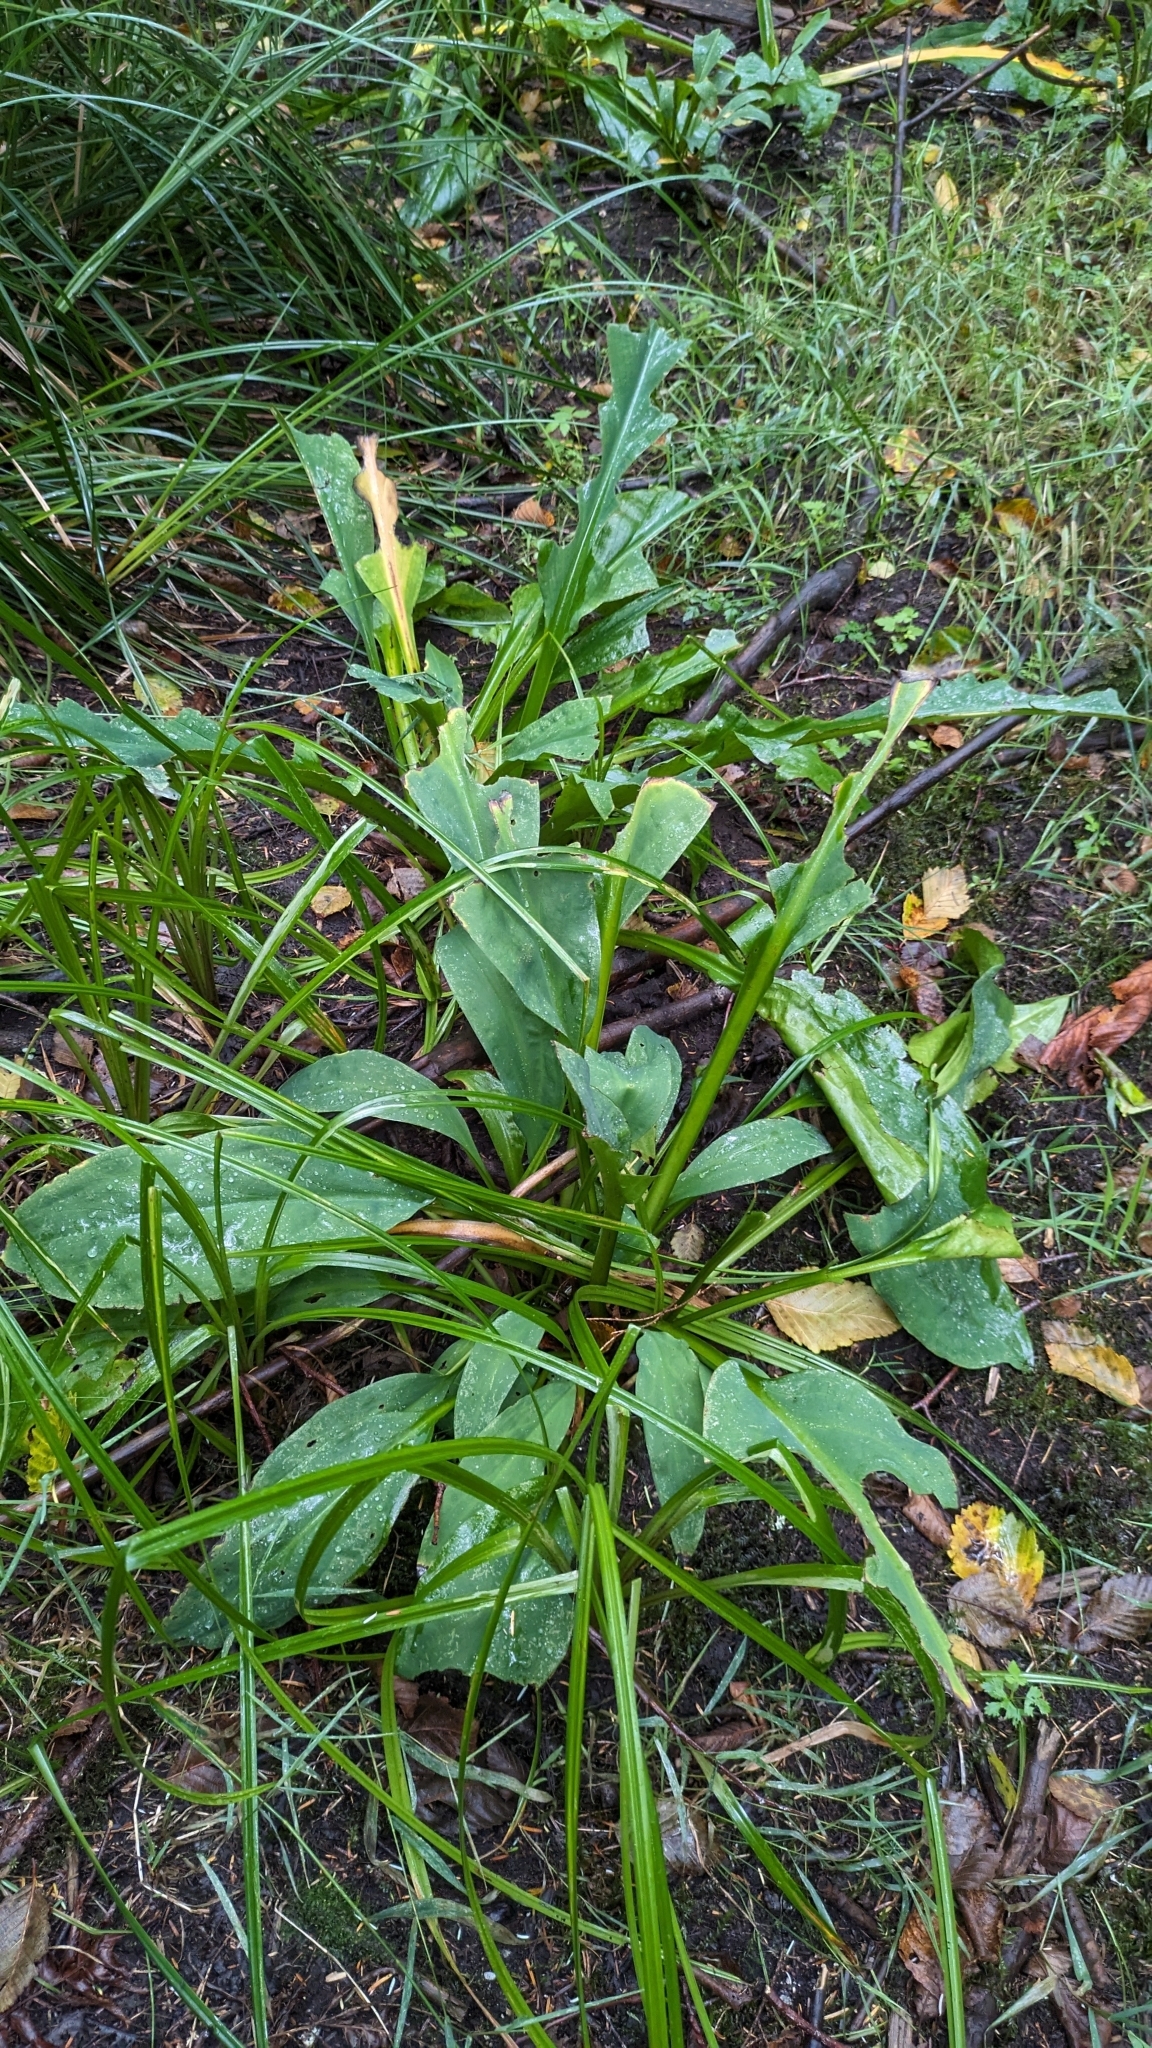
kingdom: Plantae
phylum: Tracheophyta
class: Liliopsida
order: Alismatales
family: Araceae
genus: Lysichiton
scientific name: Lysichiton americanus
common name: American skunk cabbage
